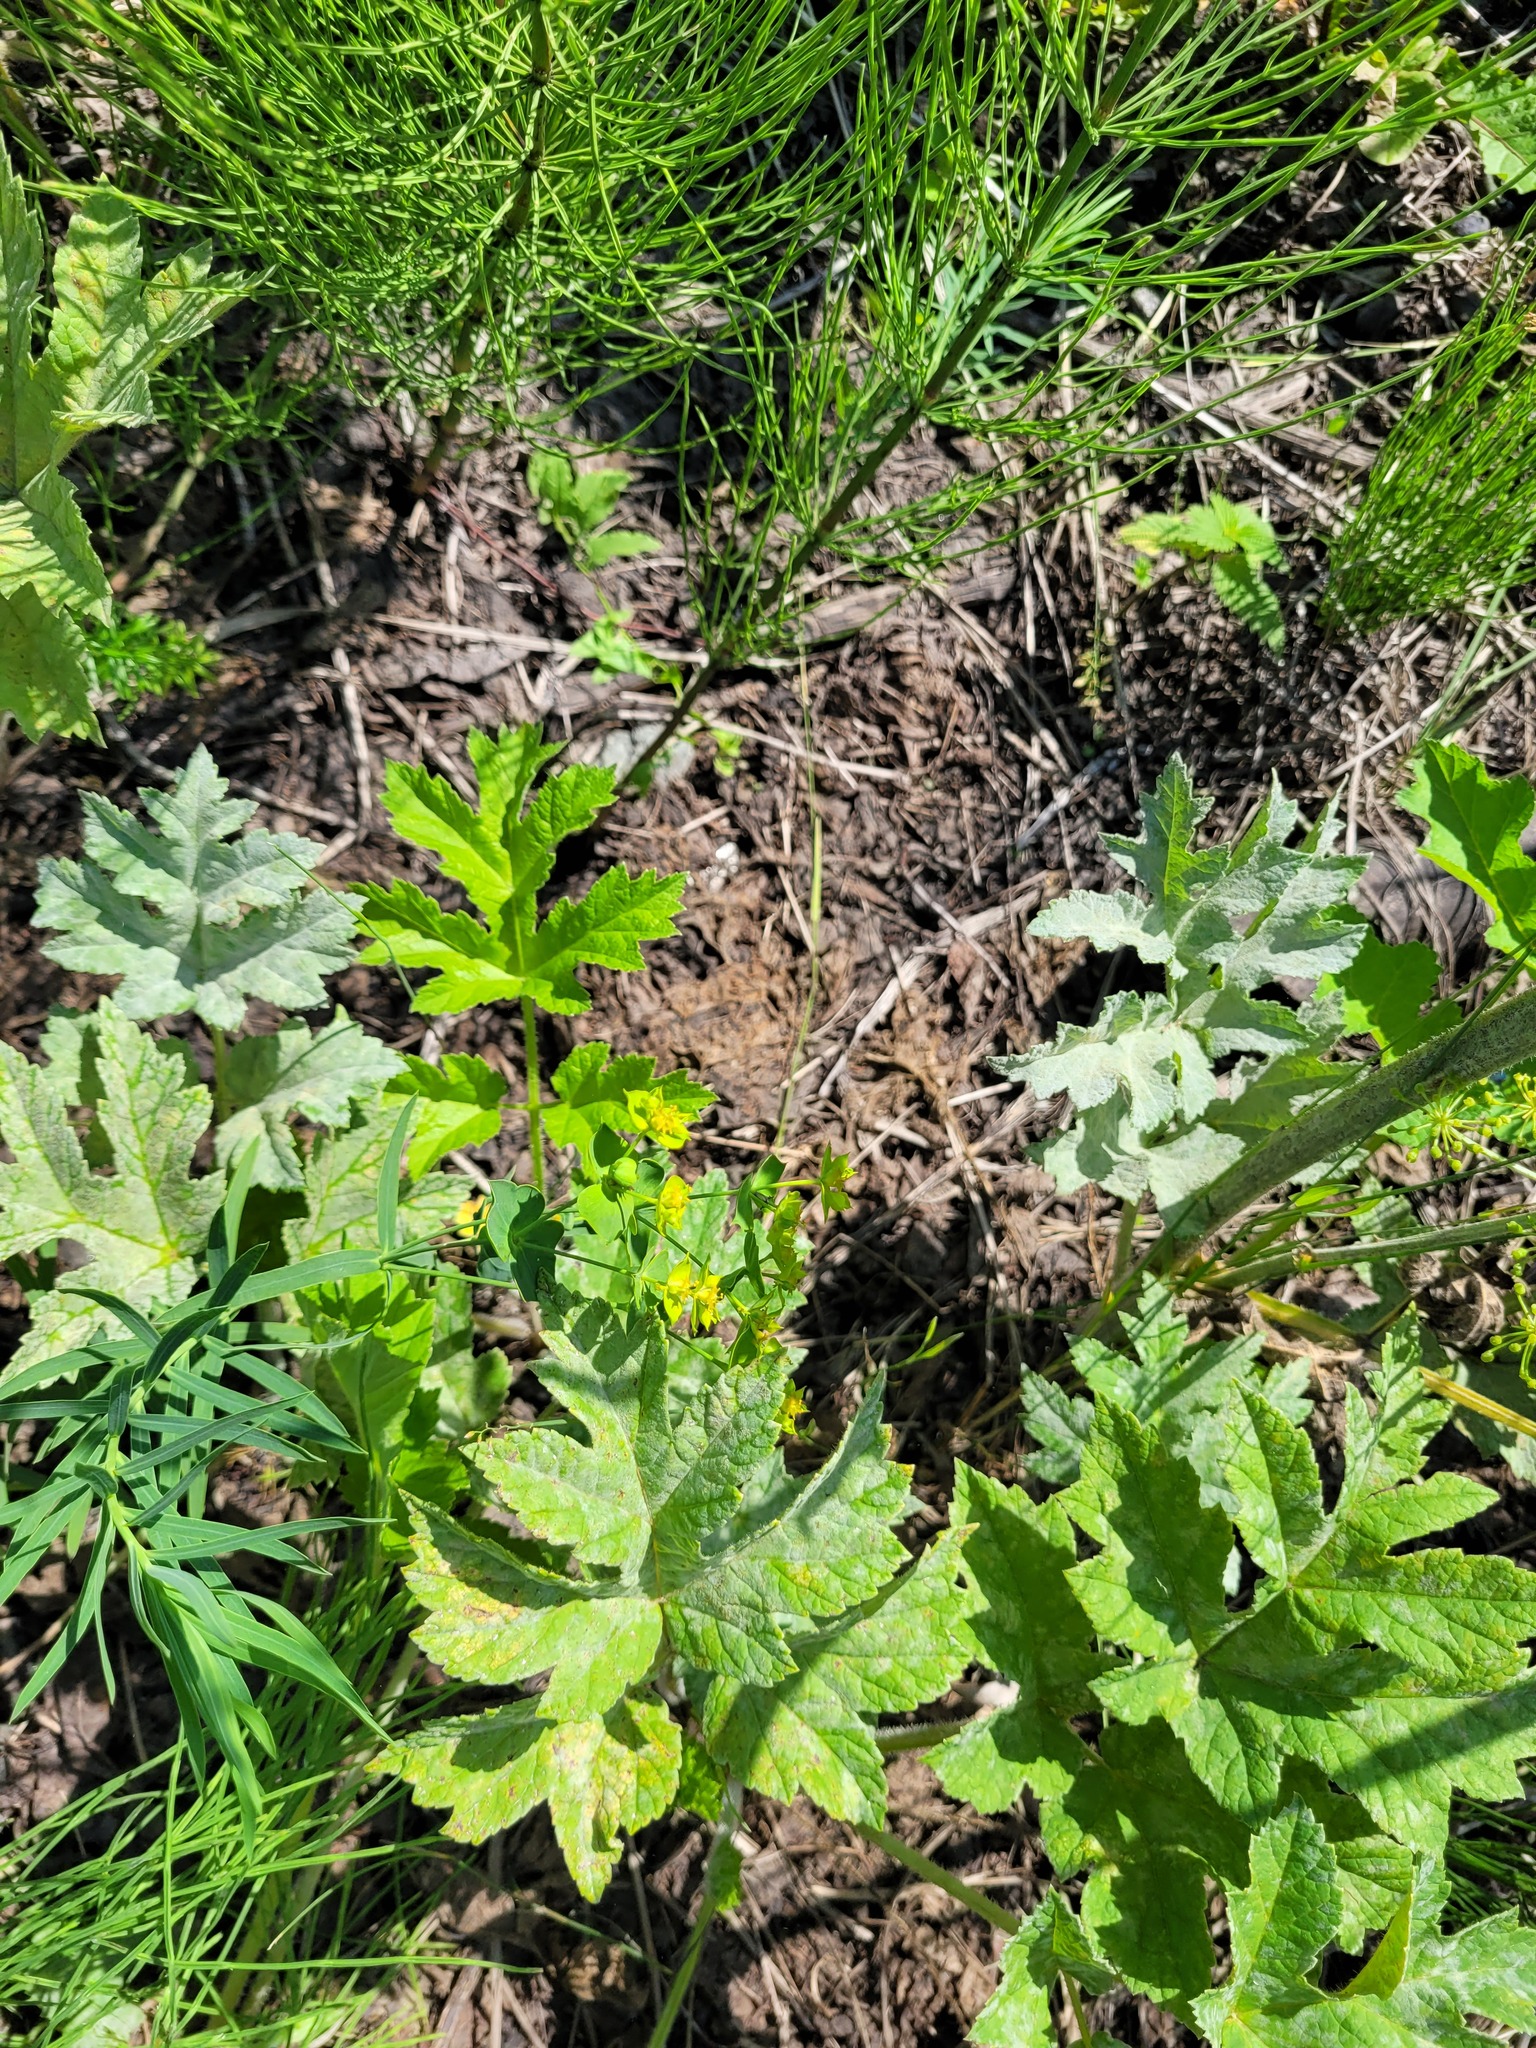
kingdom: Plantae
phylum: Tracheophyta
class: Magnoliopsida
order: Malpighiales
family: Euphorbiaceae
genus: Euphorbia
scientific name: Euphorbia virgata
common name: Leafy spurge
